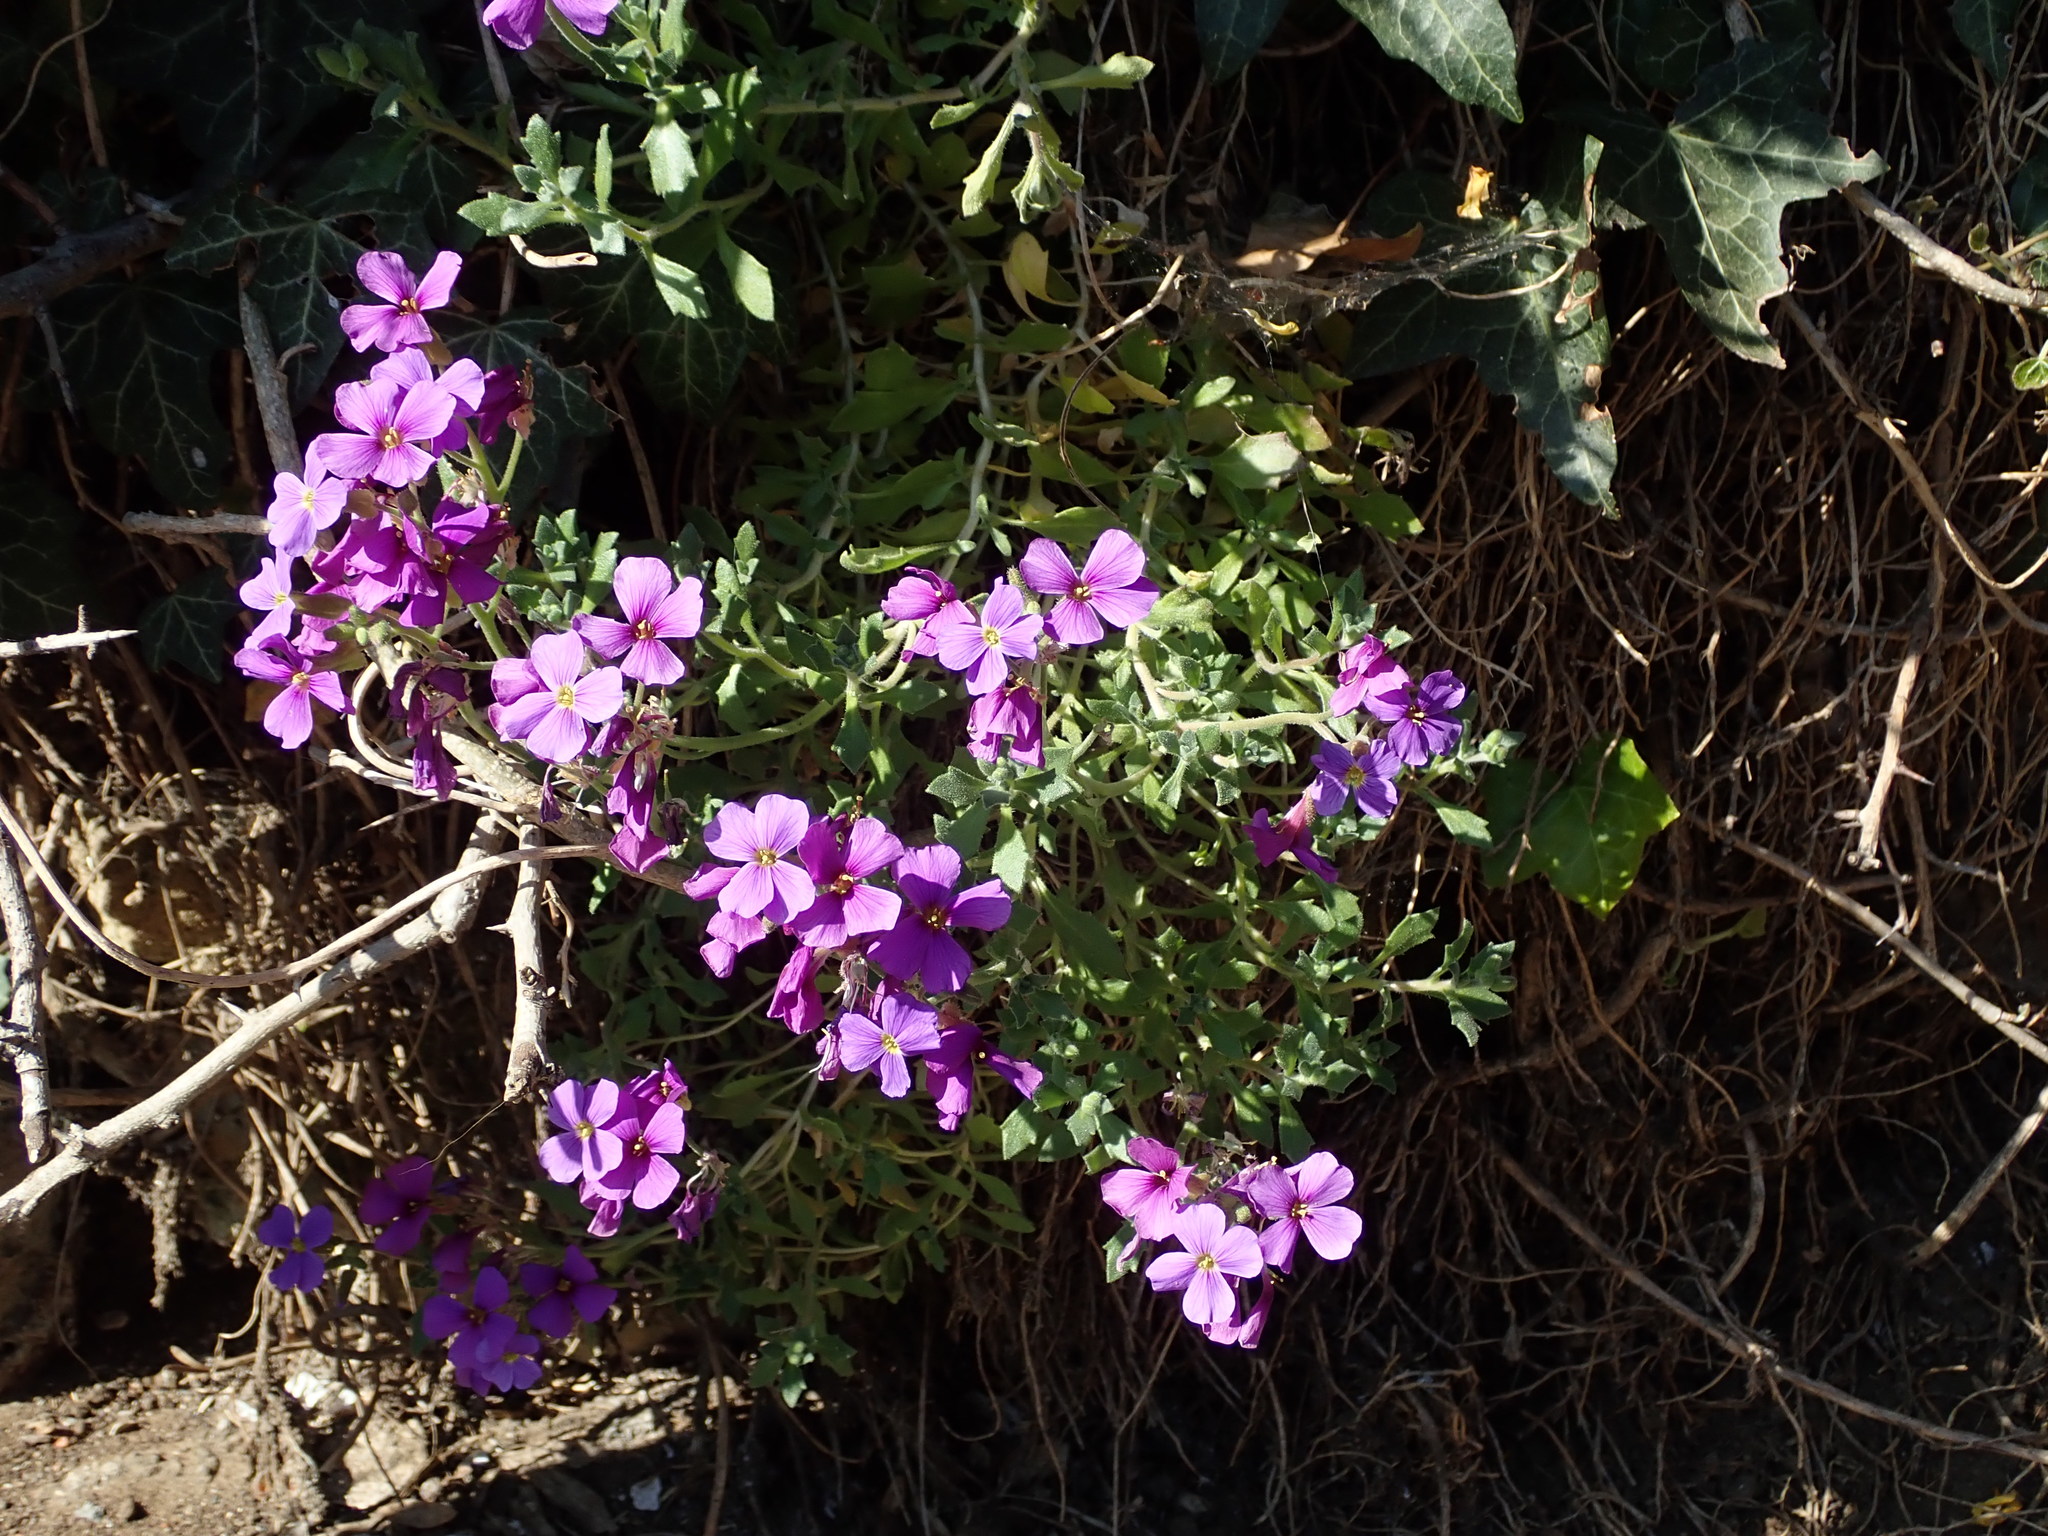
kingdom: Plantae
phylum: Tracheophyta
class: Magnoliopsida
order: Brassicales
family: Brassicaceae
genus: Aubrieta
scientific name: Aubrieta deltoidea
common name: Aubretia
